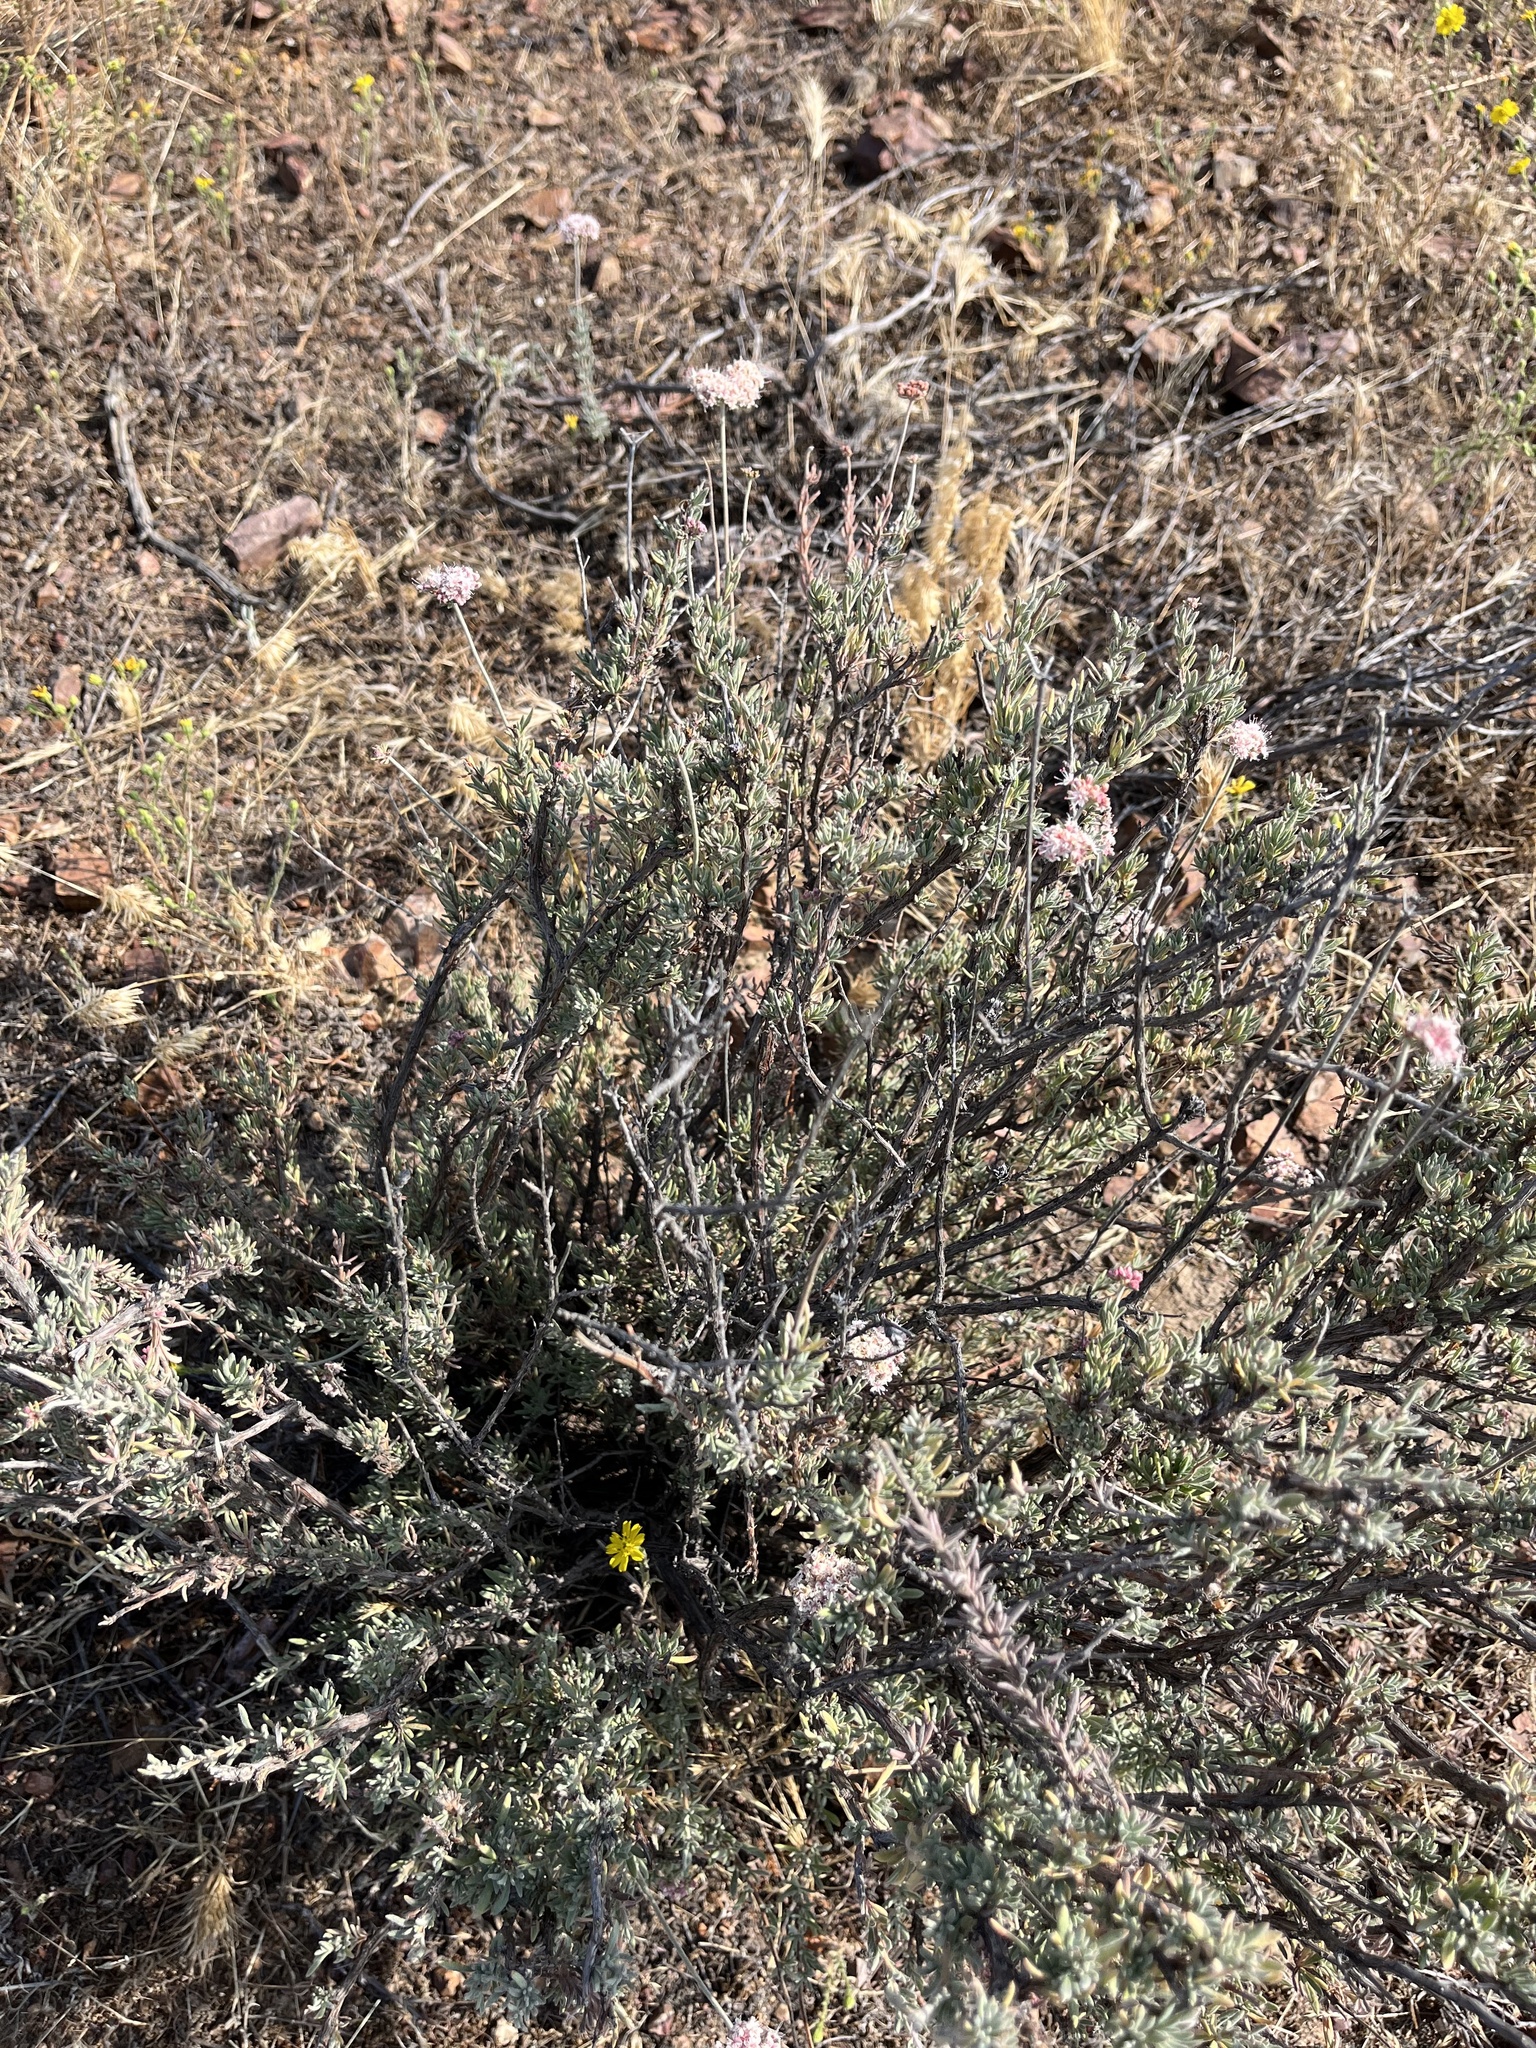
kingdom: Plantae
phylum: Tracheophyta
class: Magnoliopsida
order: Caryophyllales
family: Polygonaceae
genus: Eriogonum
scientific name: Eriogonum fasciculatum
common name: California wild buckwheat
